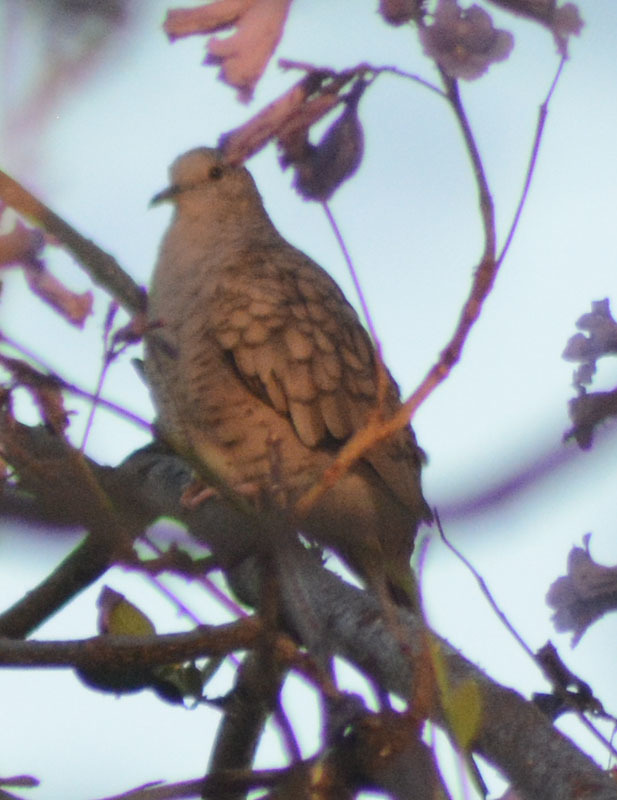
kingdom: Animalia
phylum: Chordata
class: Aves
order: Columbiformes
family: Columbidae
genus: Columbina
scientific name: Columbina inca
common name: Inca dove
